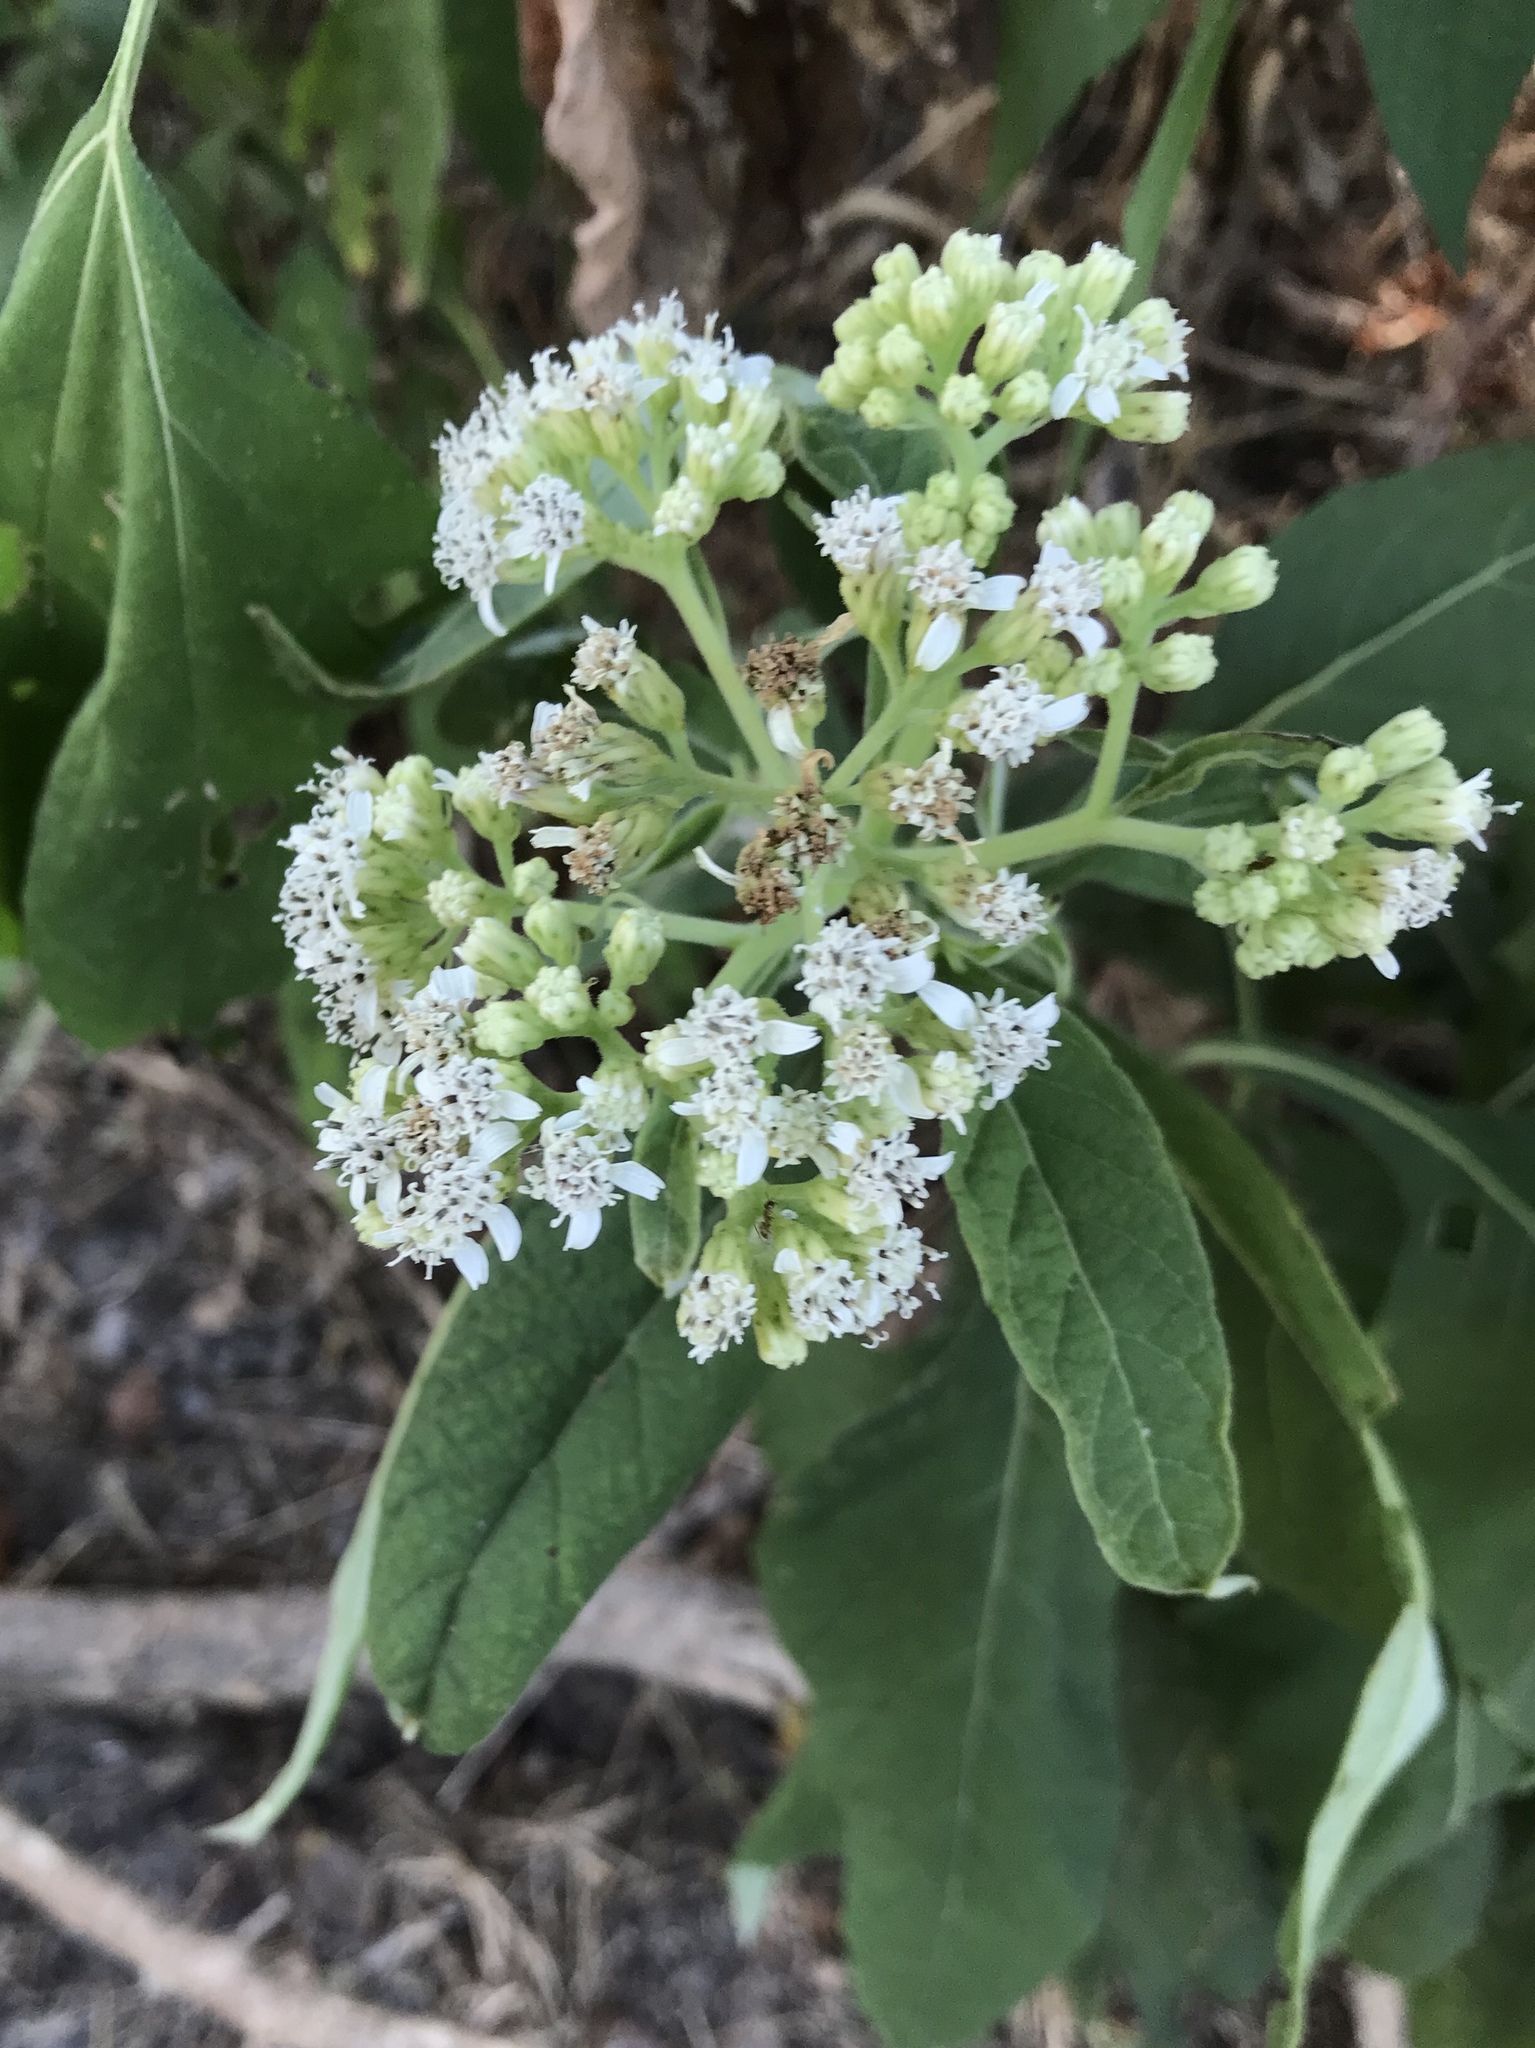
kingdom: Plantae
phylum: Tracheophyta
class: Magnoliopsida
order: Asterales
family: Asteraceae
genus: Verbesina
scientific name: Verbesina virginica
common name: Frostweed
